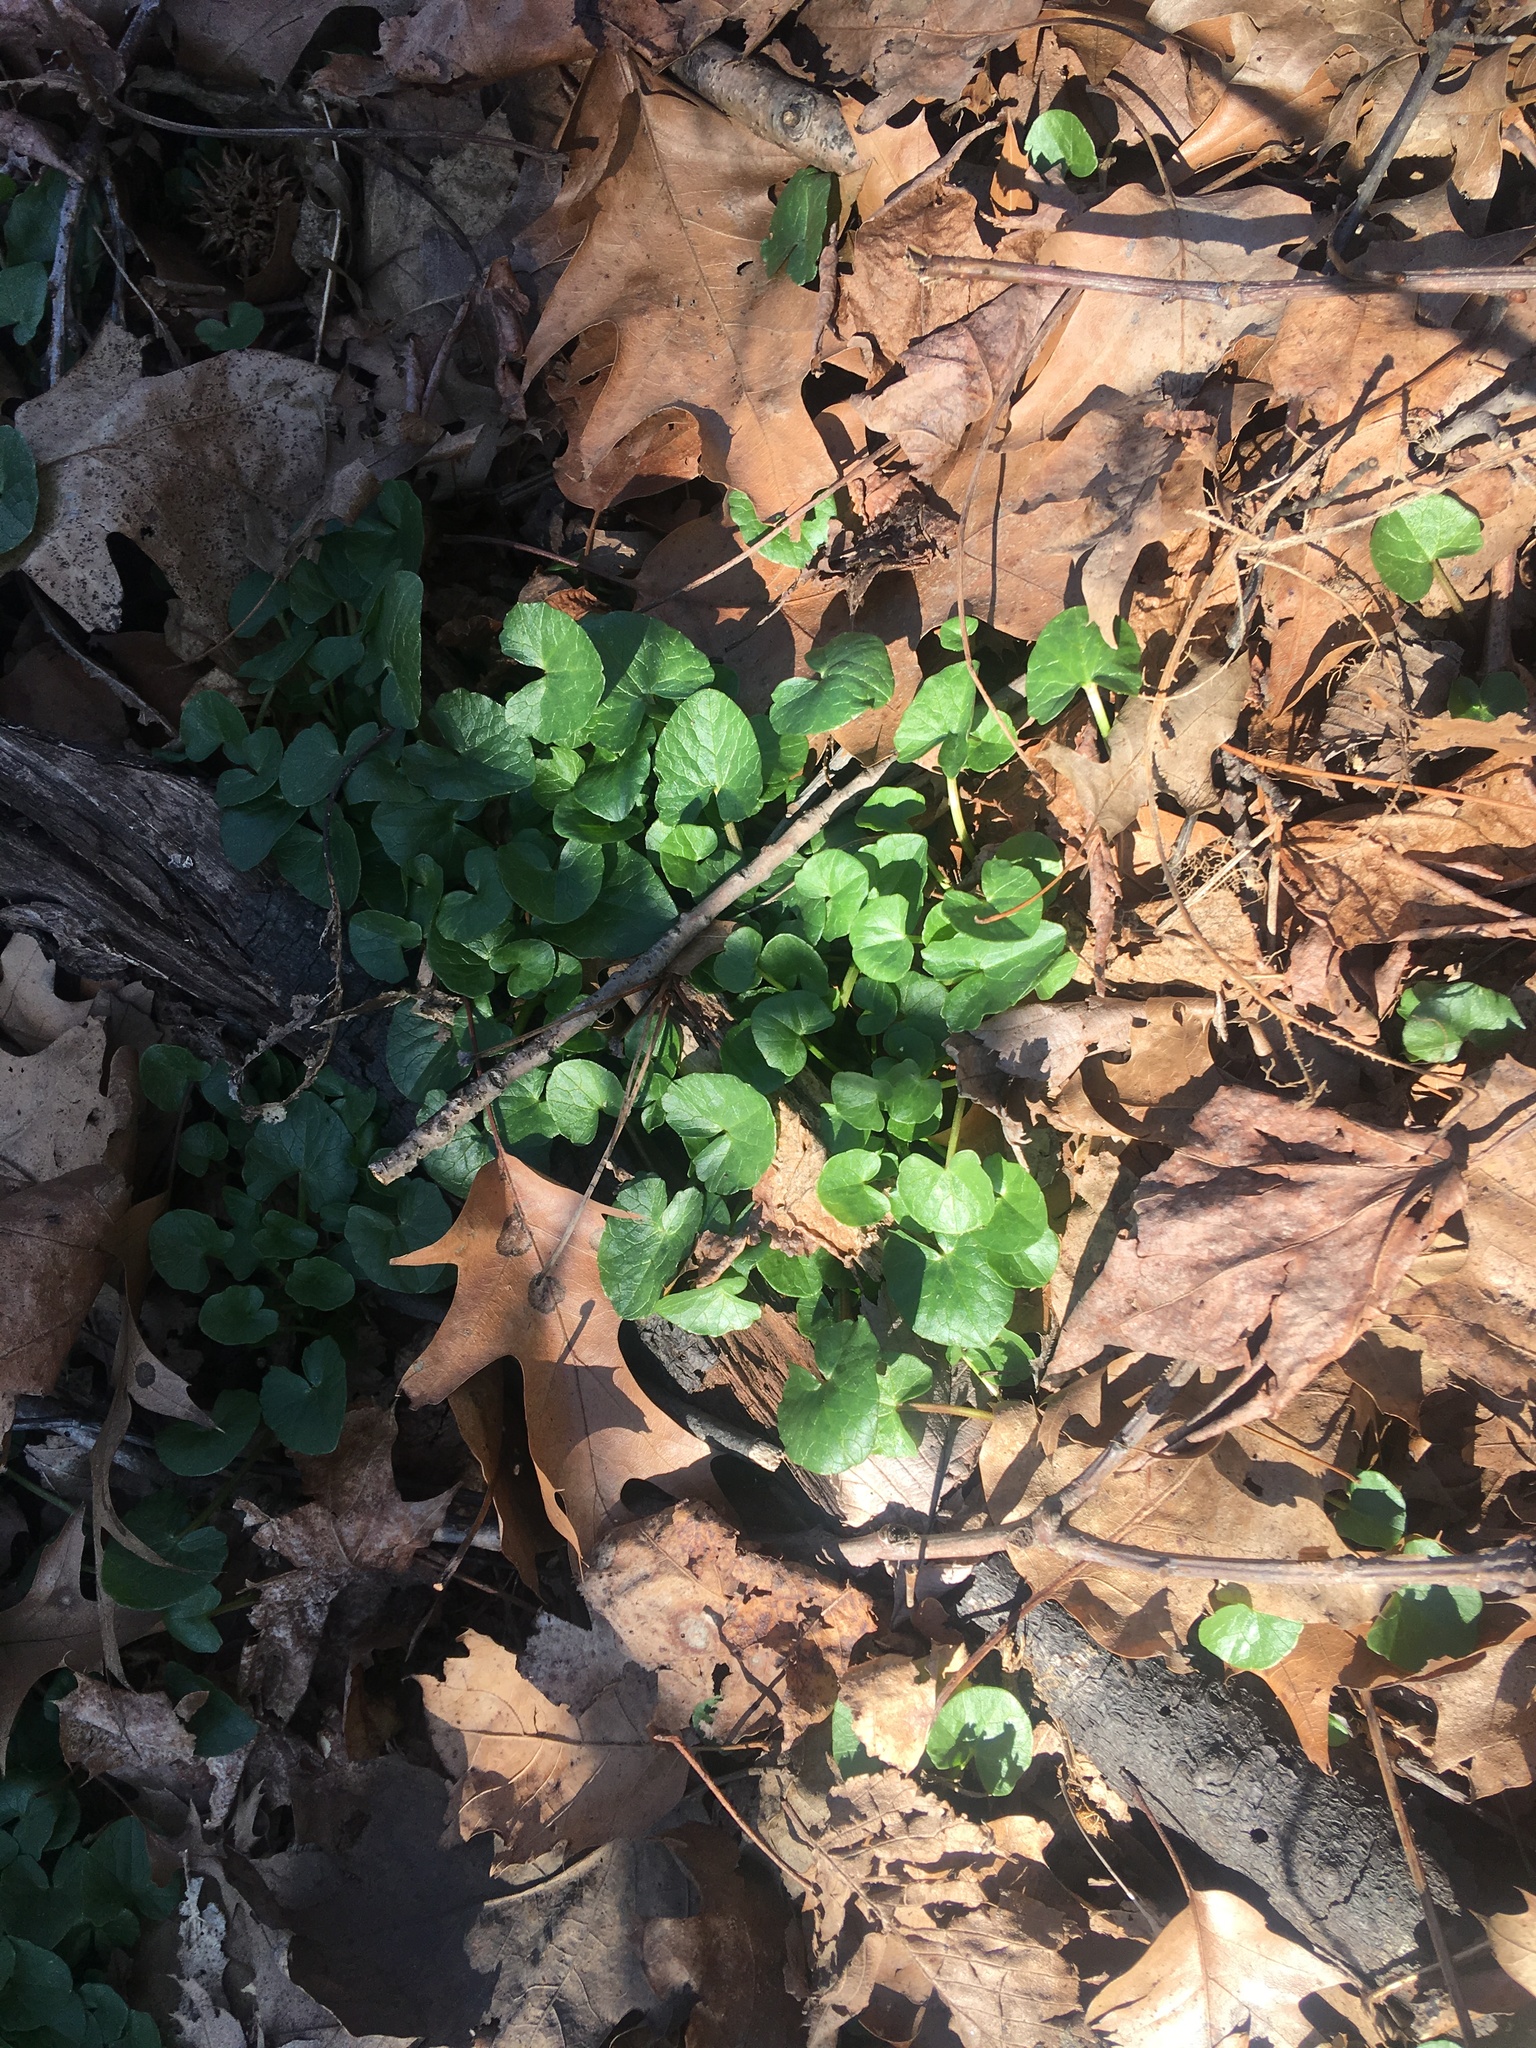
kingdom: Plantae
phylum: Tracheophyta
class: Magnoliopsida
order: Ranunculales
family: Ranunculaceae
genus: Ficaria
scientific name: Ficaria verna
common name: Lesser celandine
